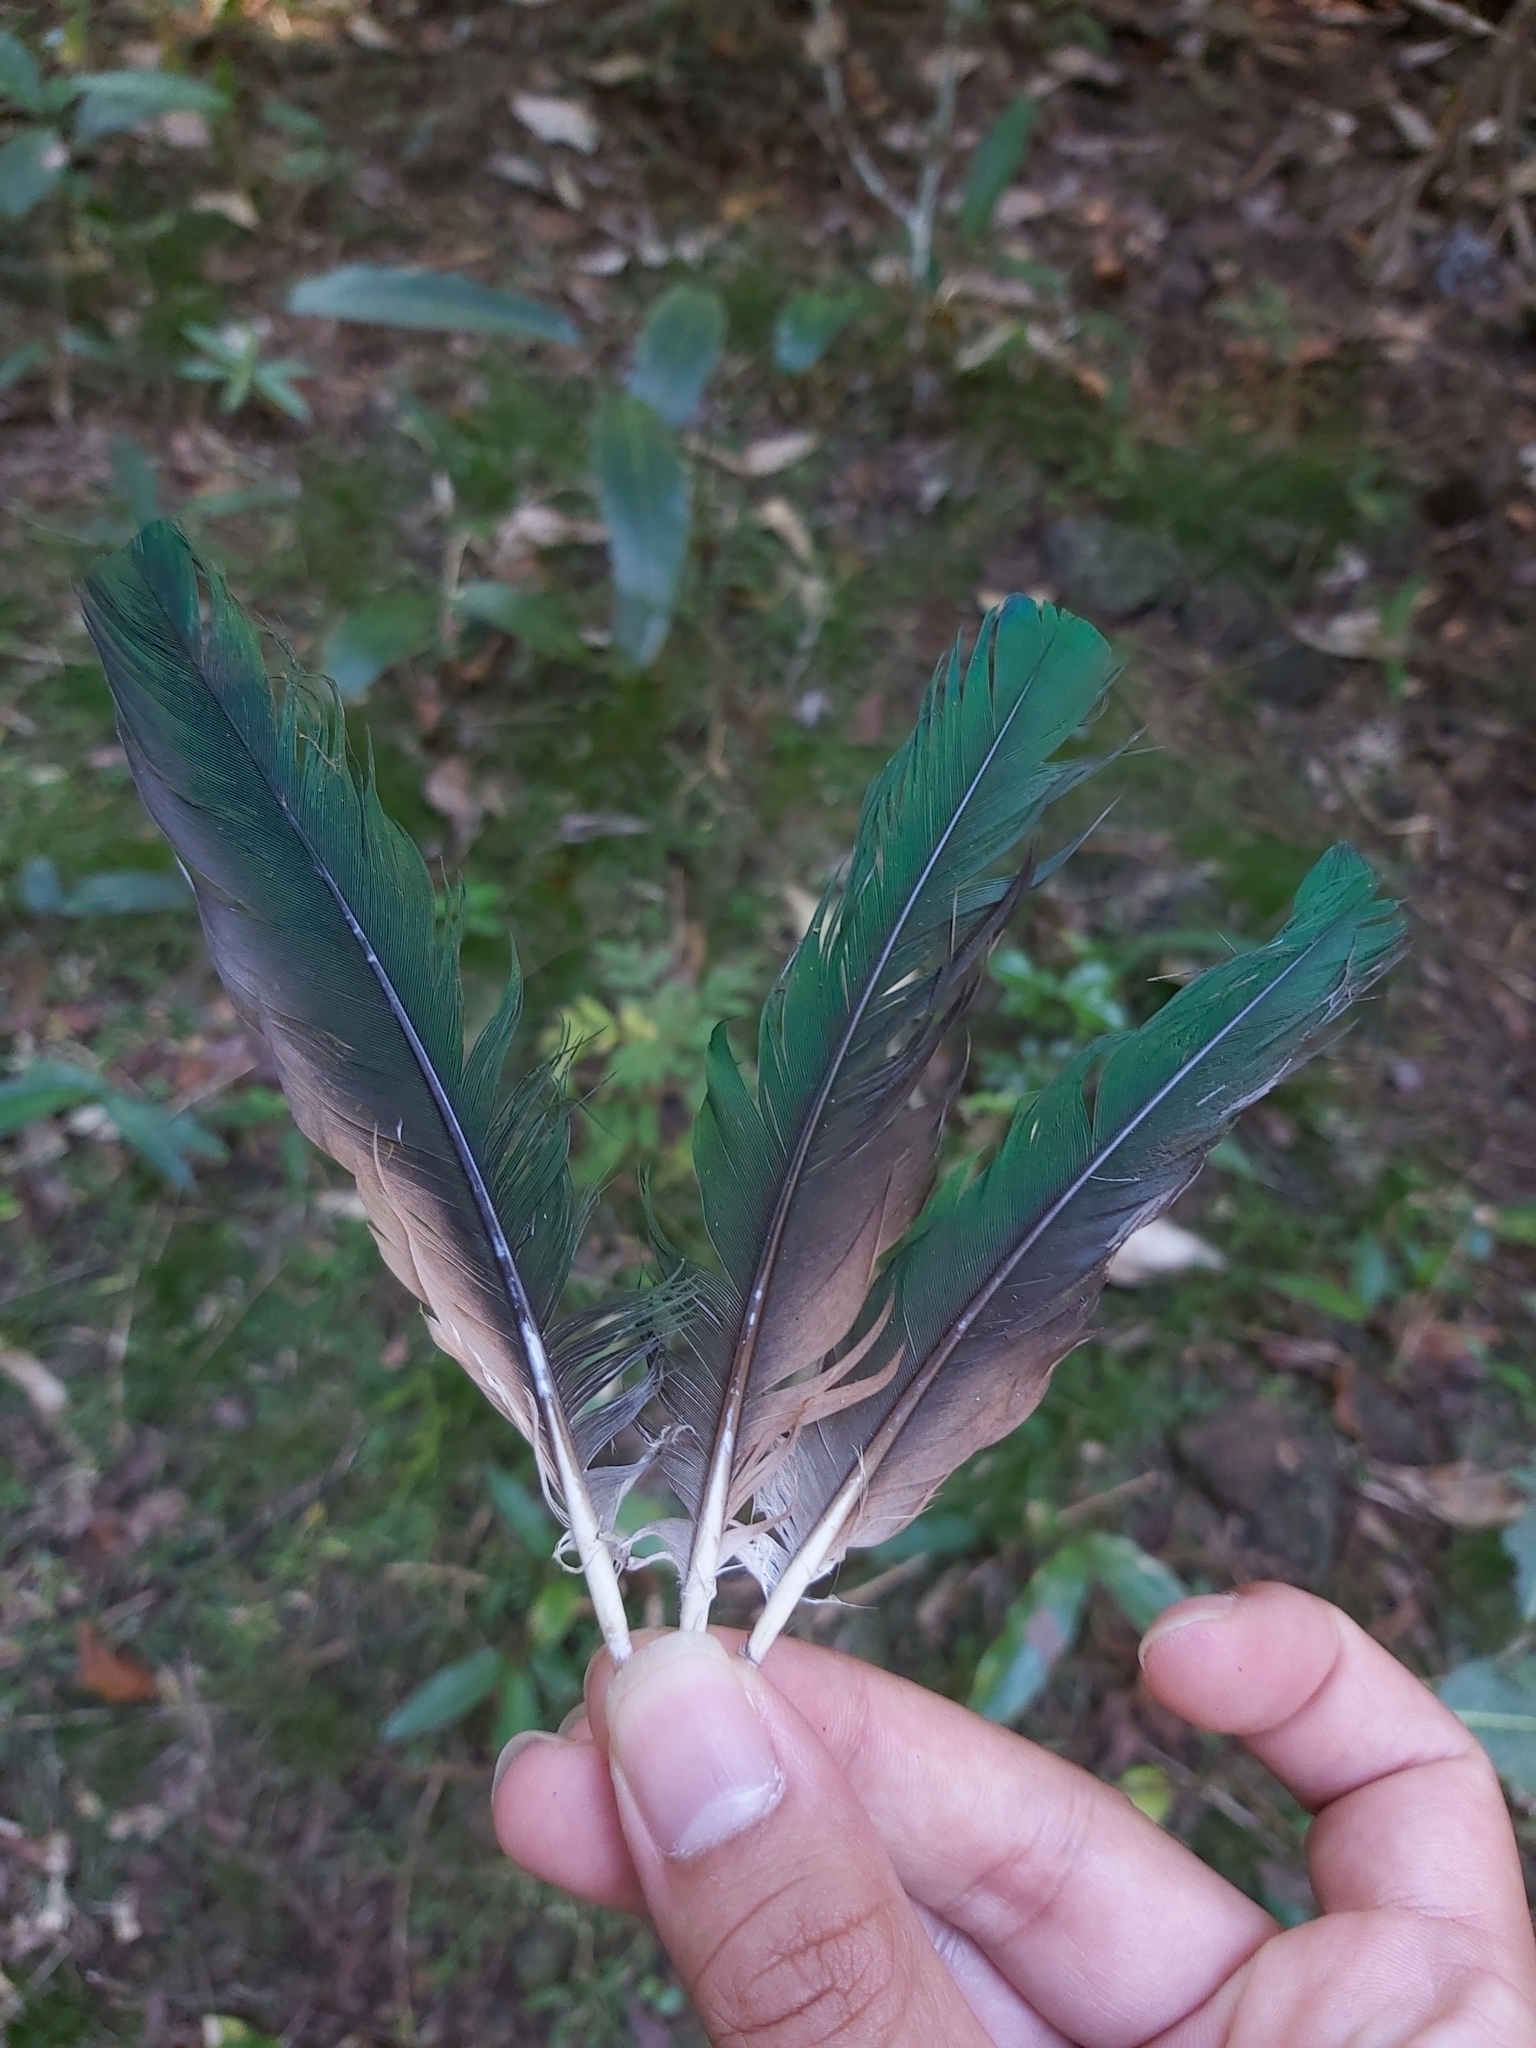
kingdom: Animalia
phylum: Chordata
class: Aves
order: Columbiformes
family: Columbidae
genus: Ptilinopus
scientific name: Ptilinopus magnificus
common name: Wompoo fruit dove
